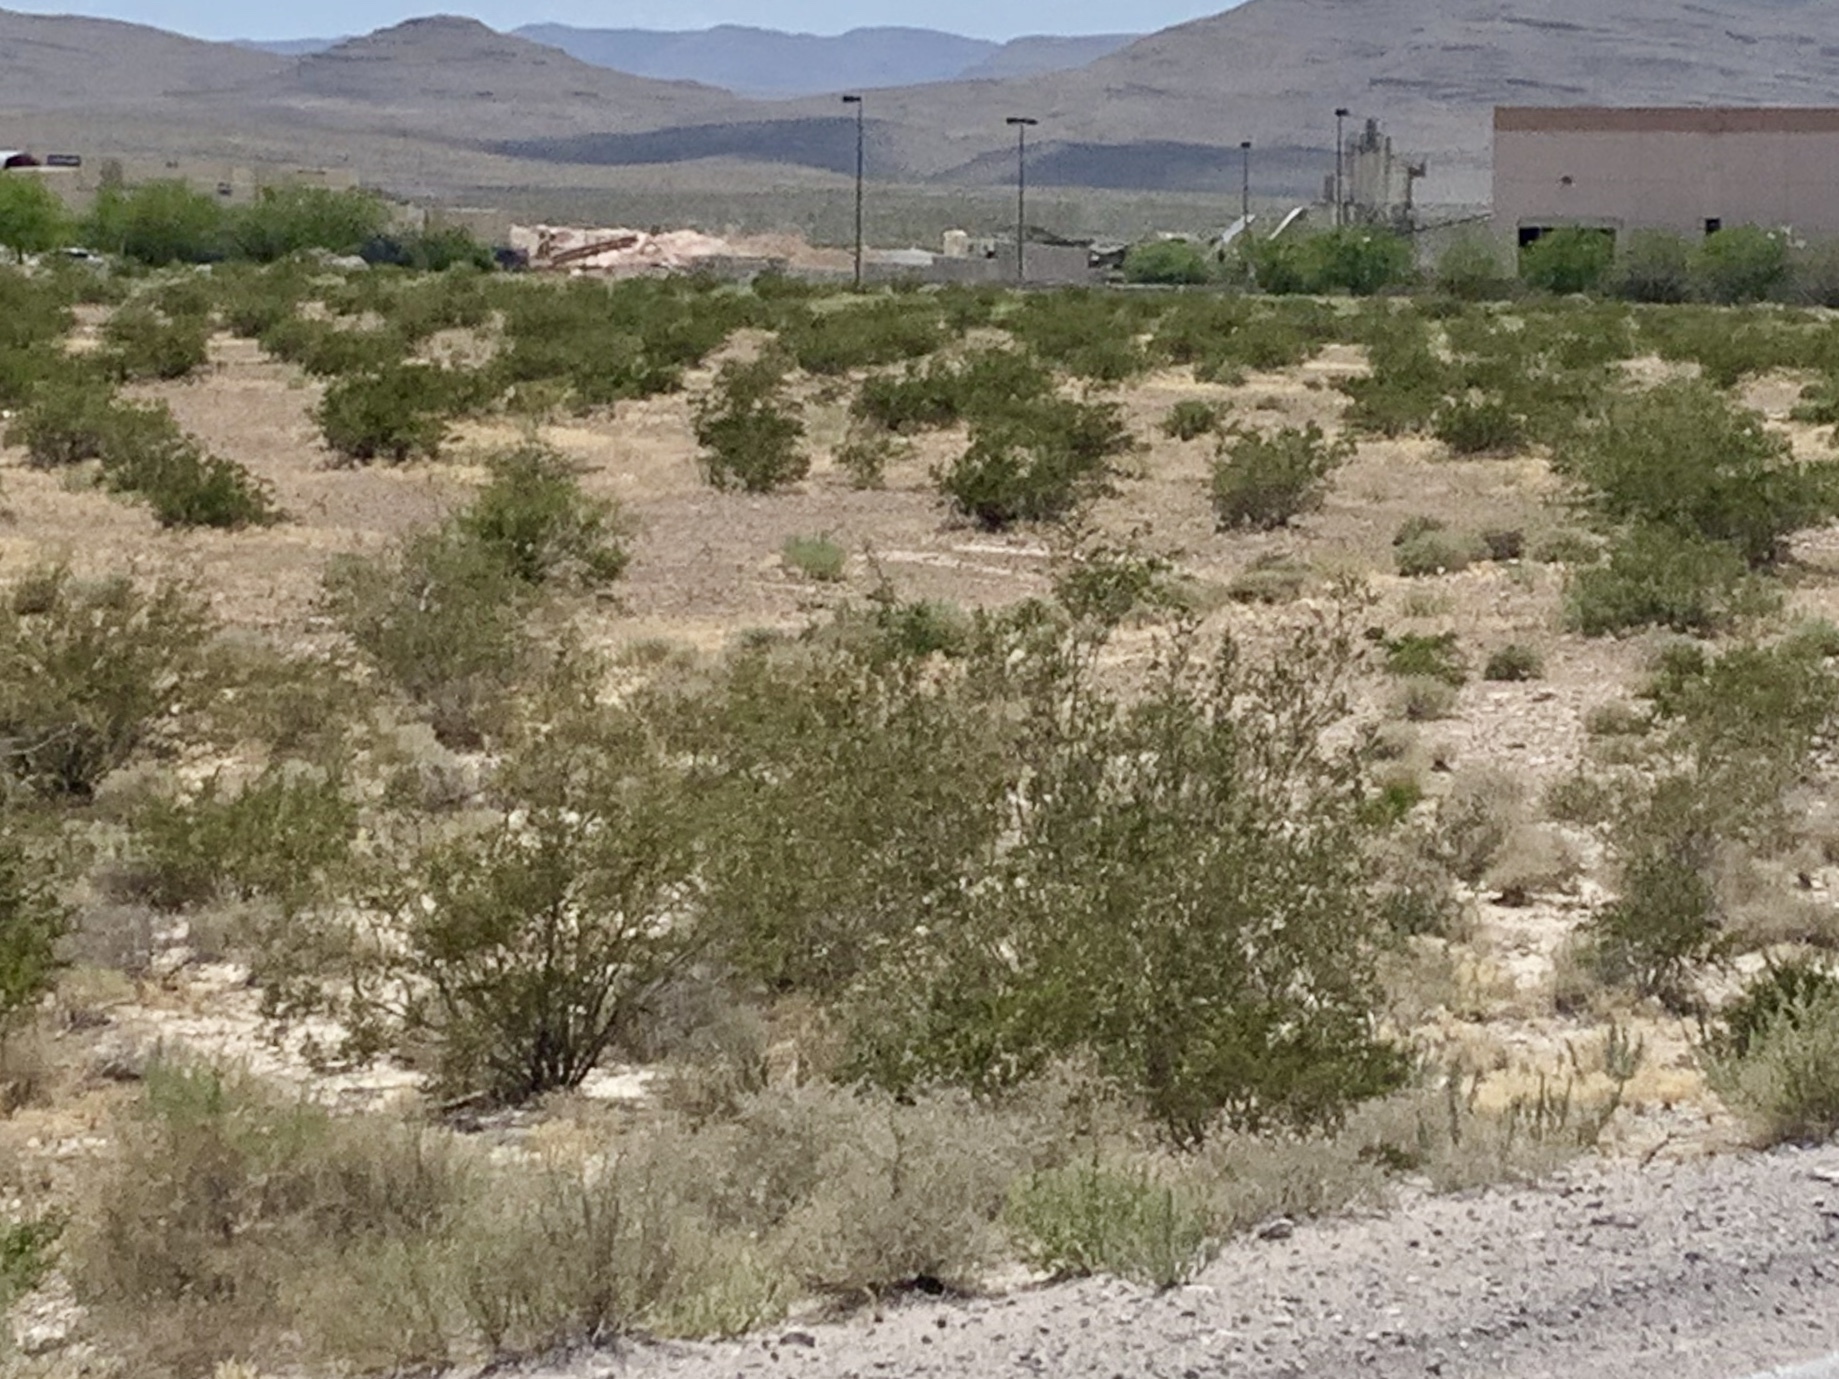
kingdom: Plantae
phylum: Tracheophyta
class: Magnoliopsida
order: Zygophyllales
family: Zygophyllaceae
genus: Larrea
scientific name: Larrea tridentata
